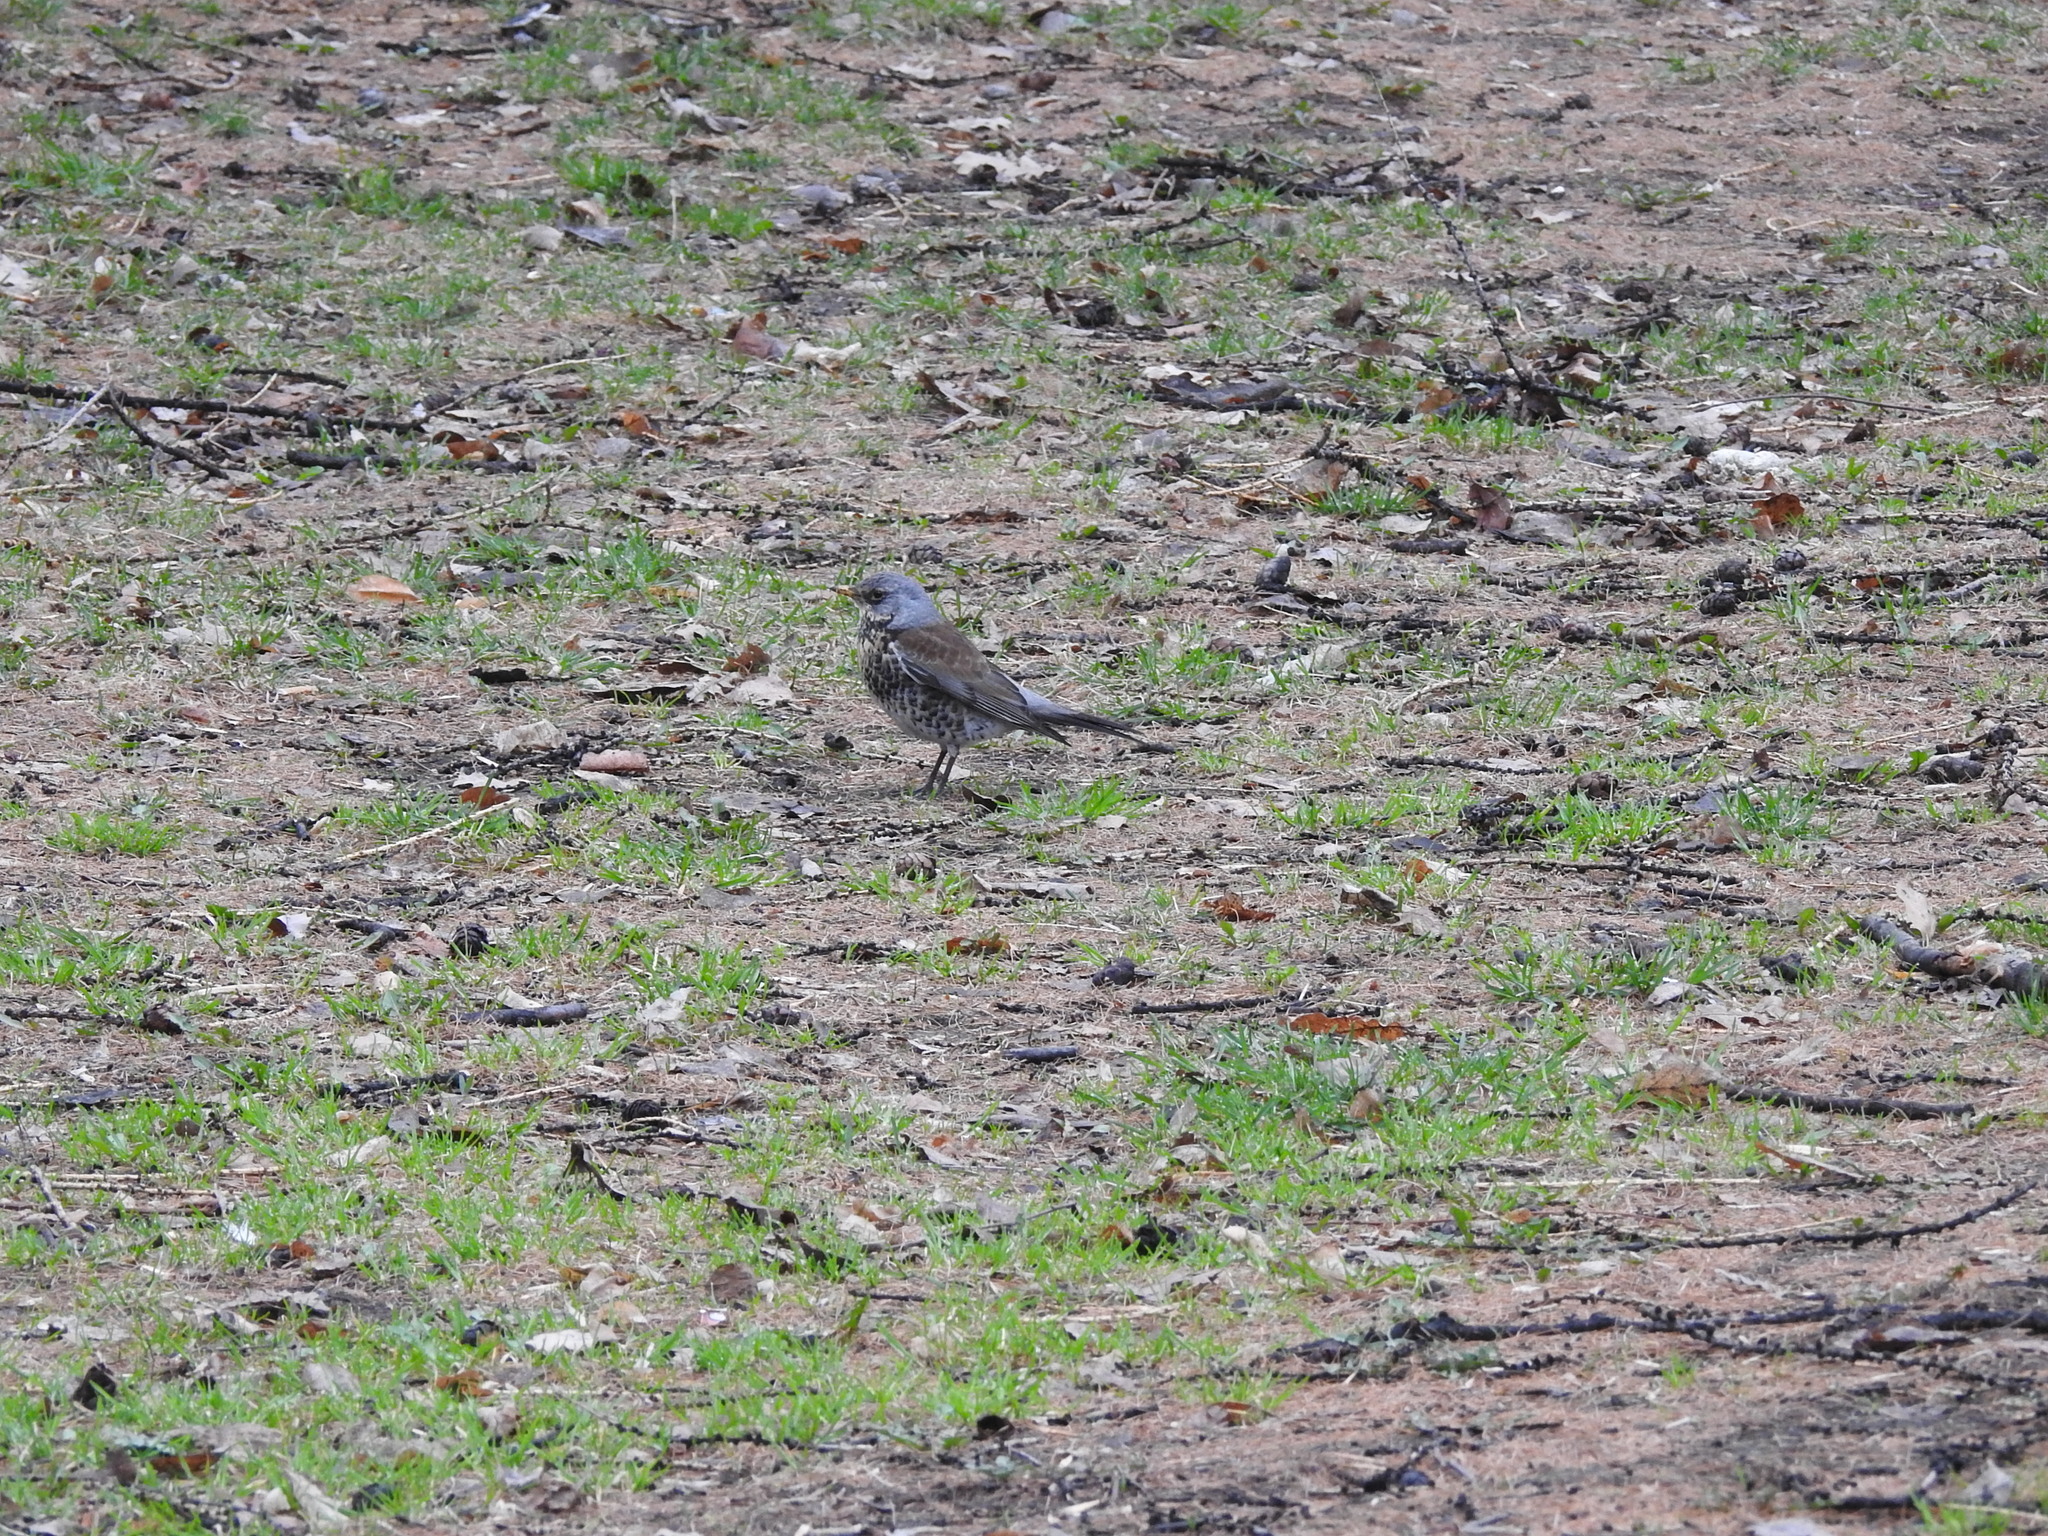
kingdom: Animalia
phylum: Chordata
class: Aves
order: Passeriformes
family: Turdidae
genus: Turdus
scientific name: Turdus pilaris
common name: Fieldfare
